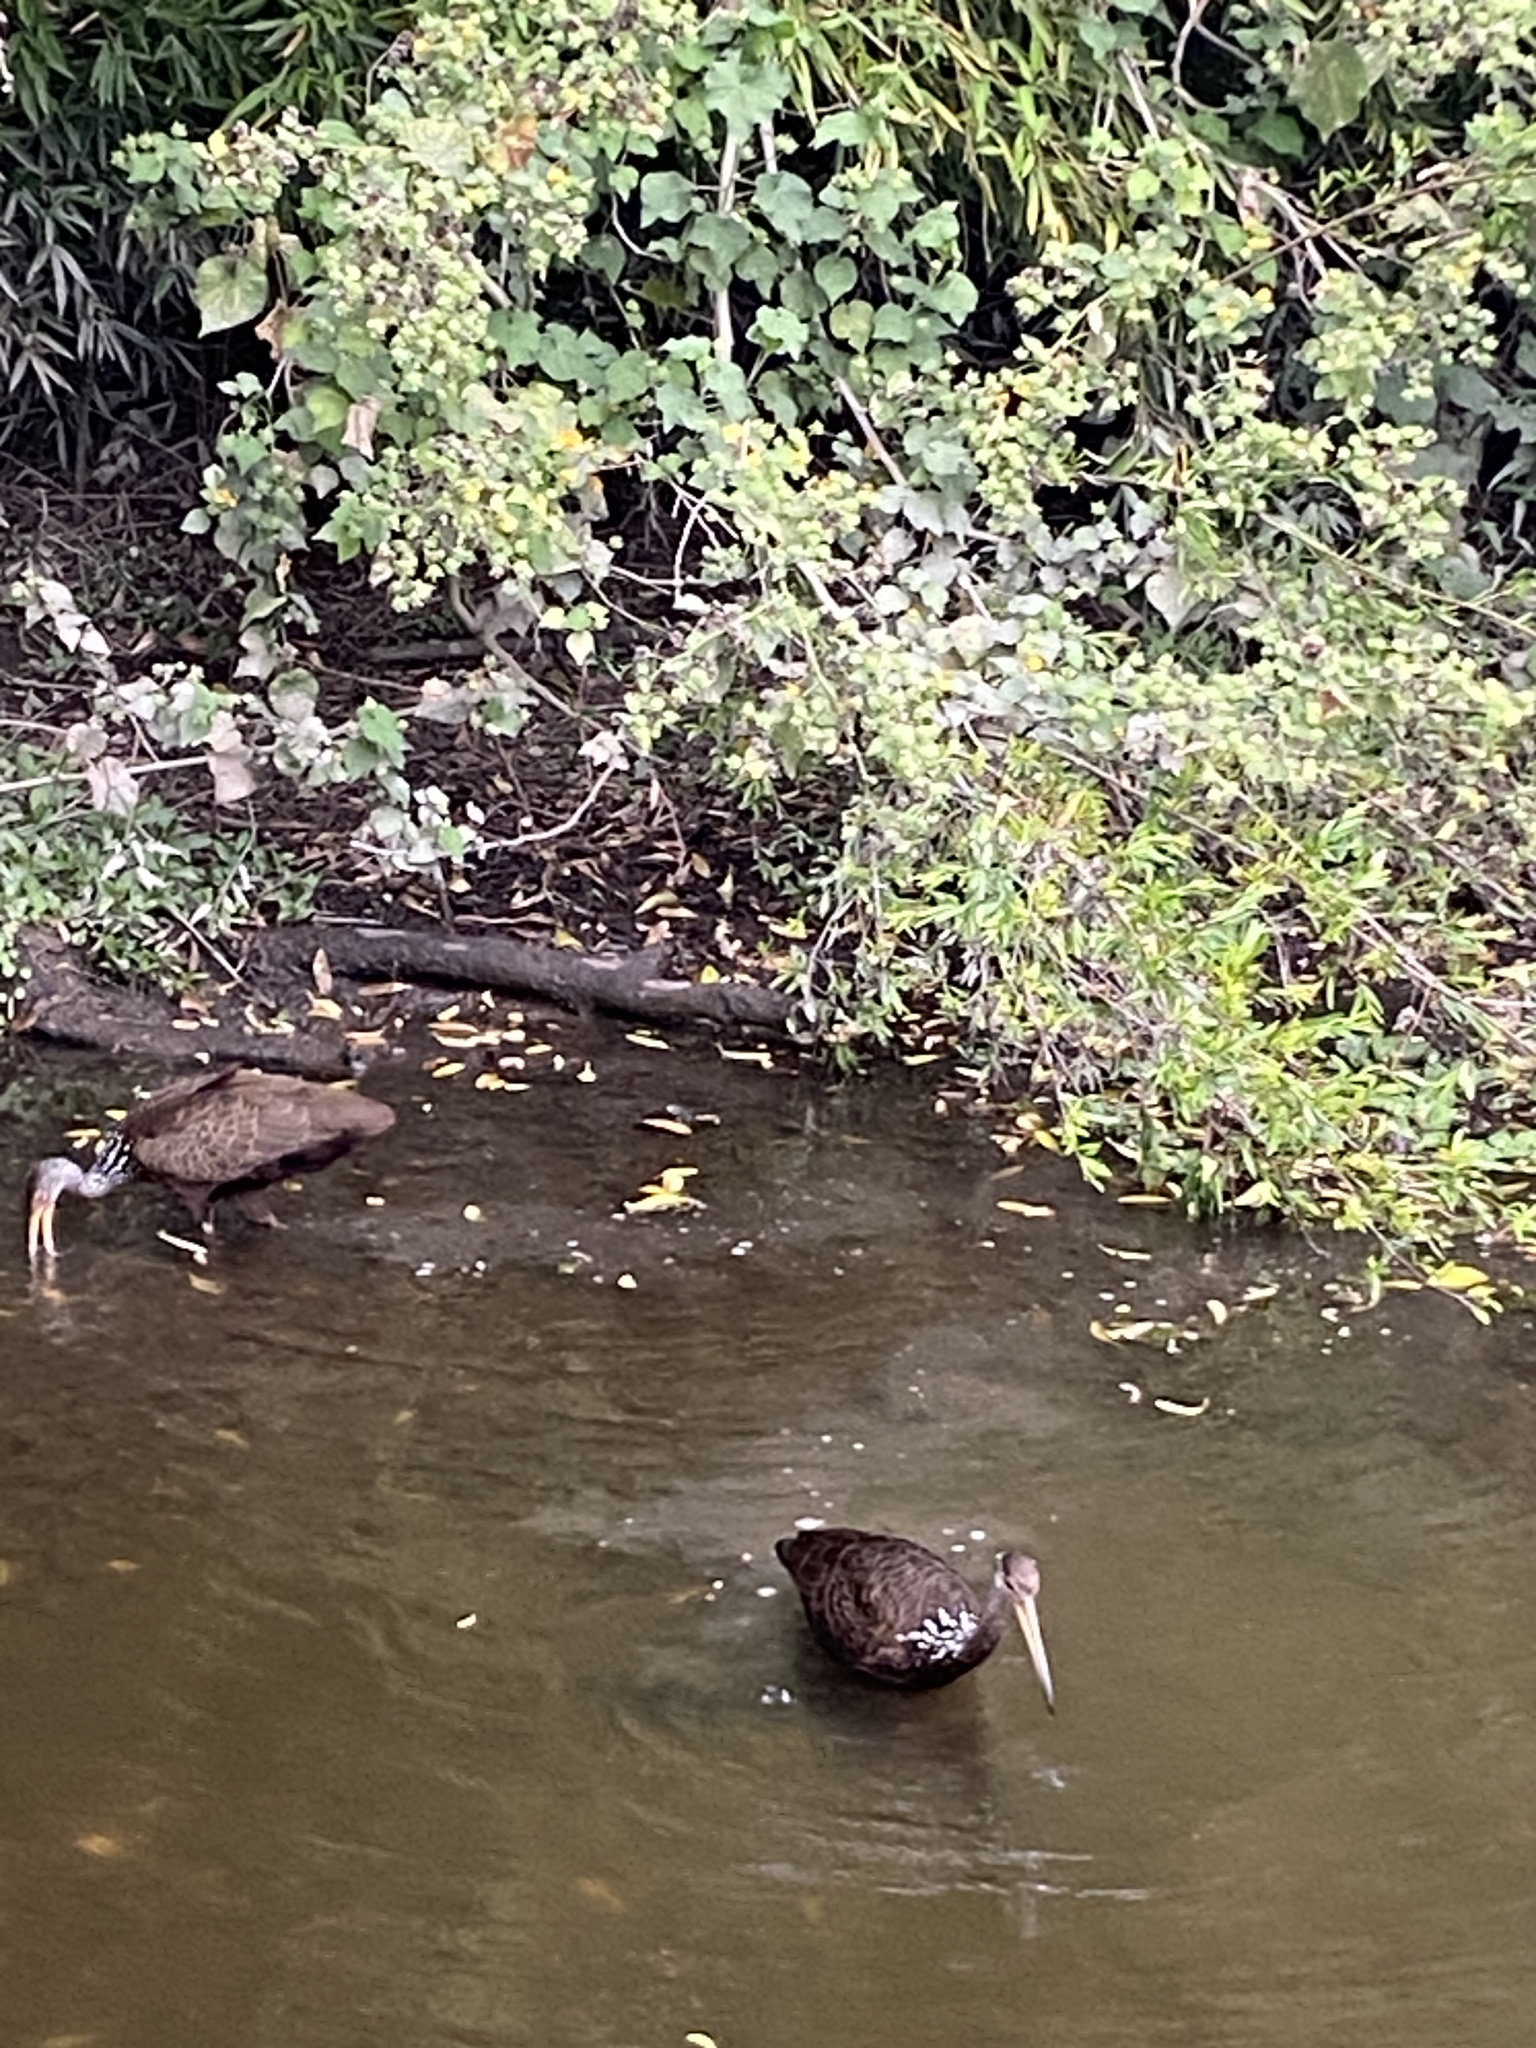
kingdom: Animalia
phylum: Chordata
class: Aves
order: Gruiformes
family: Aramidae
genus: Aramus
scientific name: Aramus guarauna
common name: Limpkin
